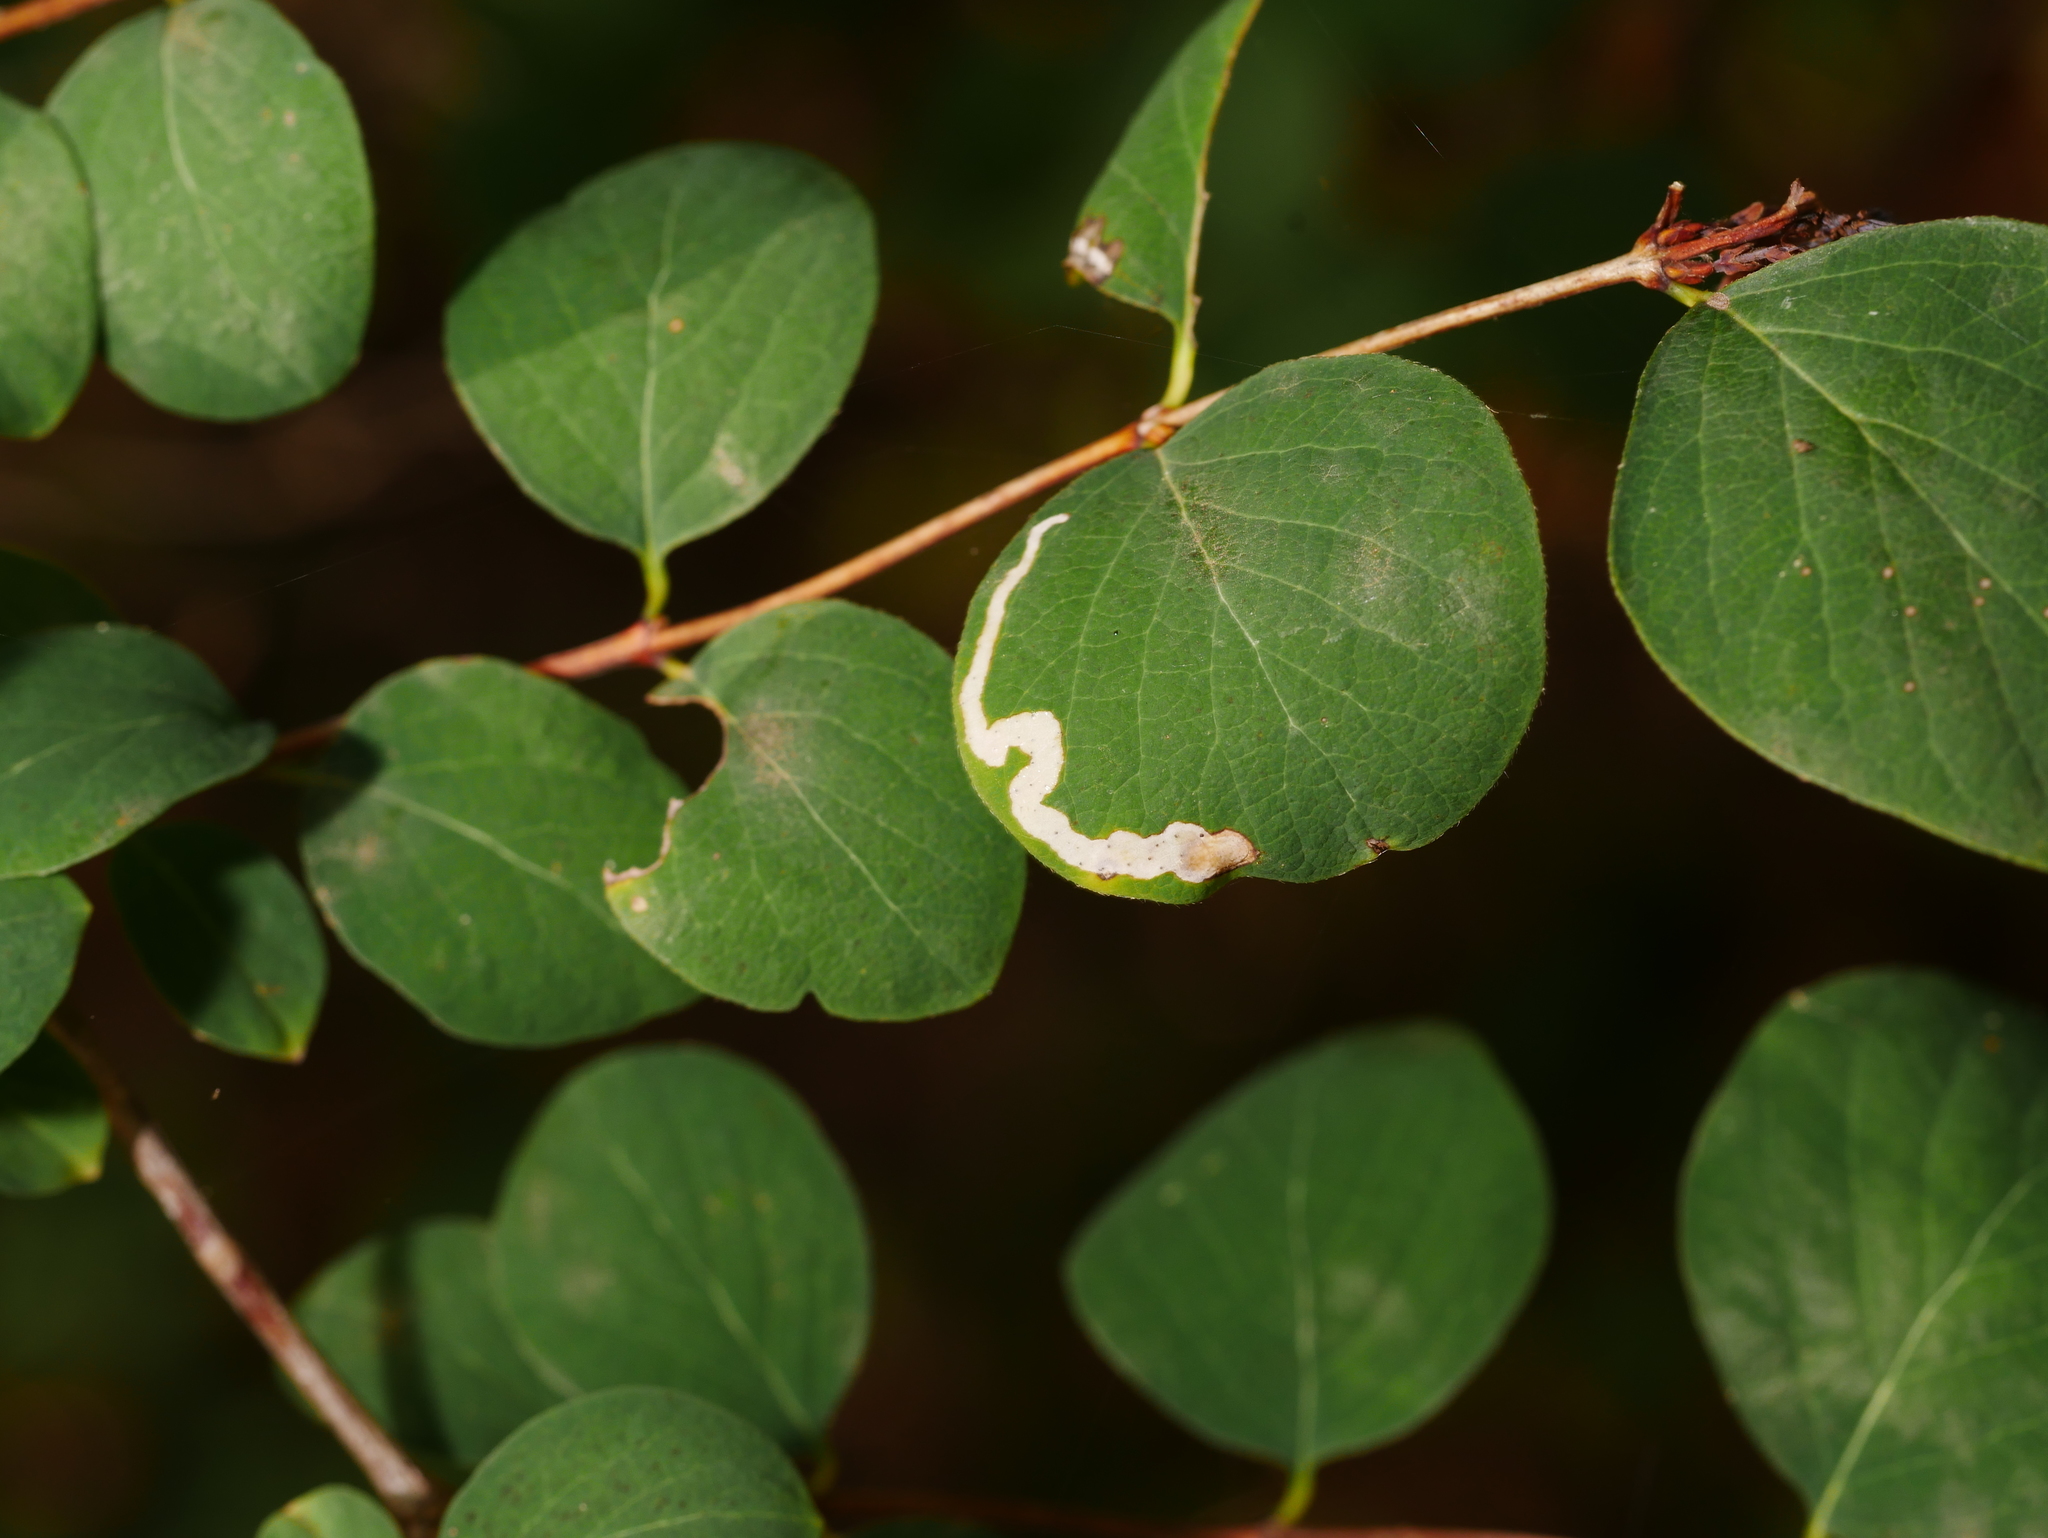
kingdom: Plantae
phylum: Tracheophyta
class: Magnoliopsida
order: Dipsacales
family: Caprifoliaceae
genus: Symphoricarpos
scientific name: Symphoricarpos albus
